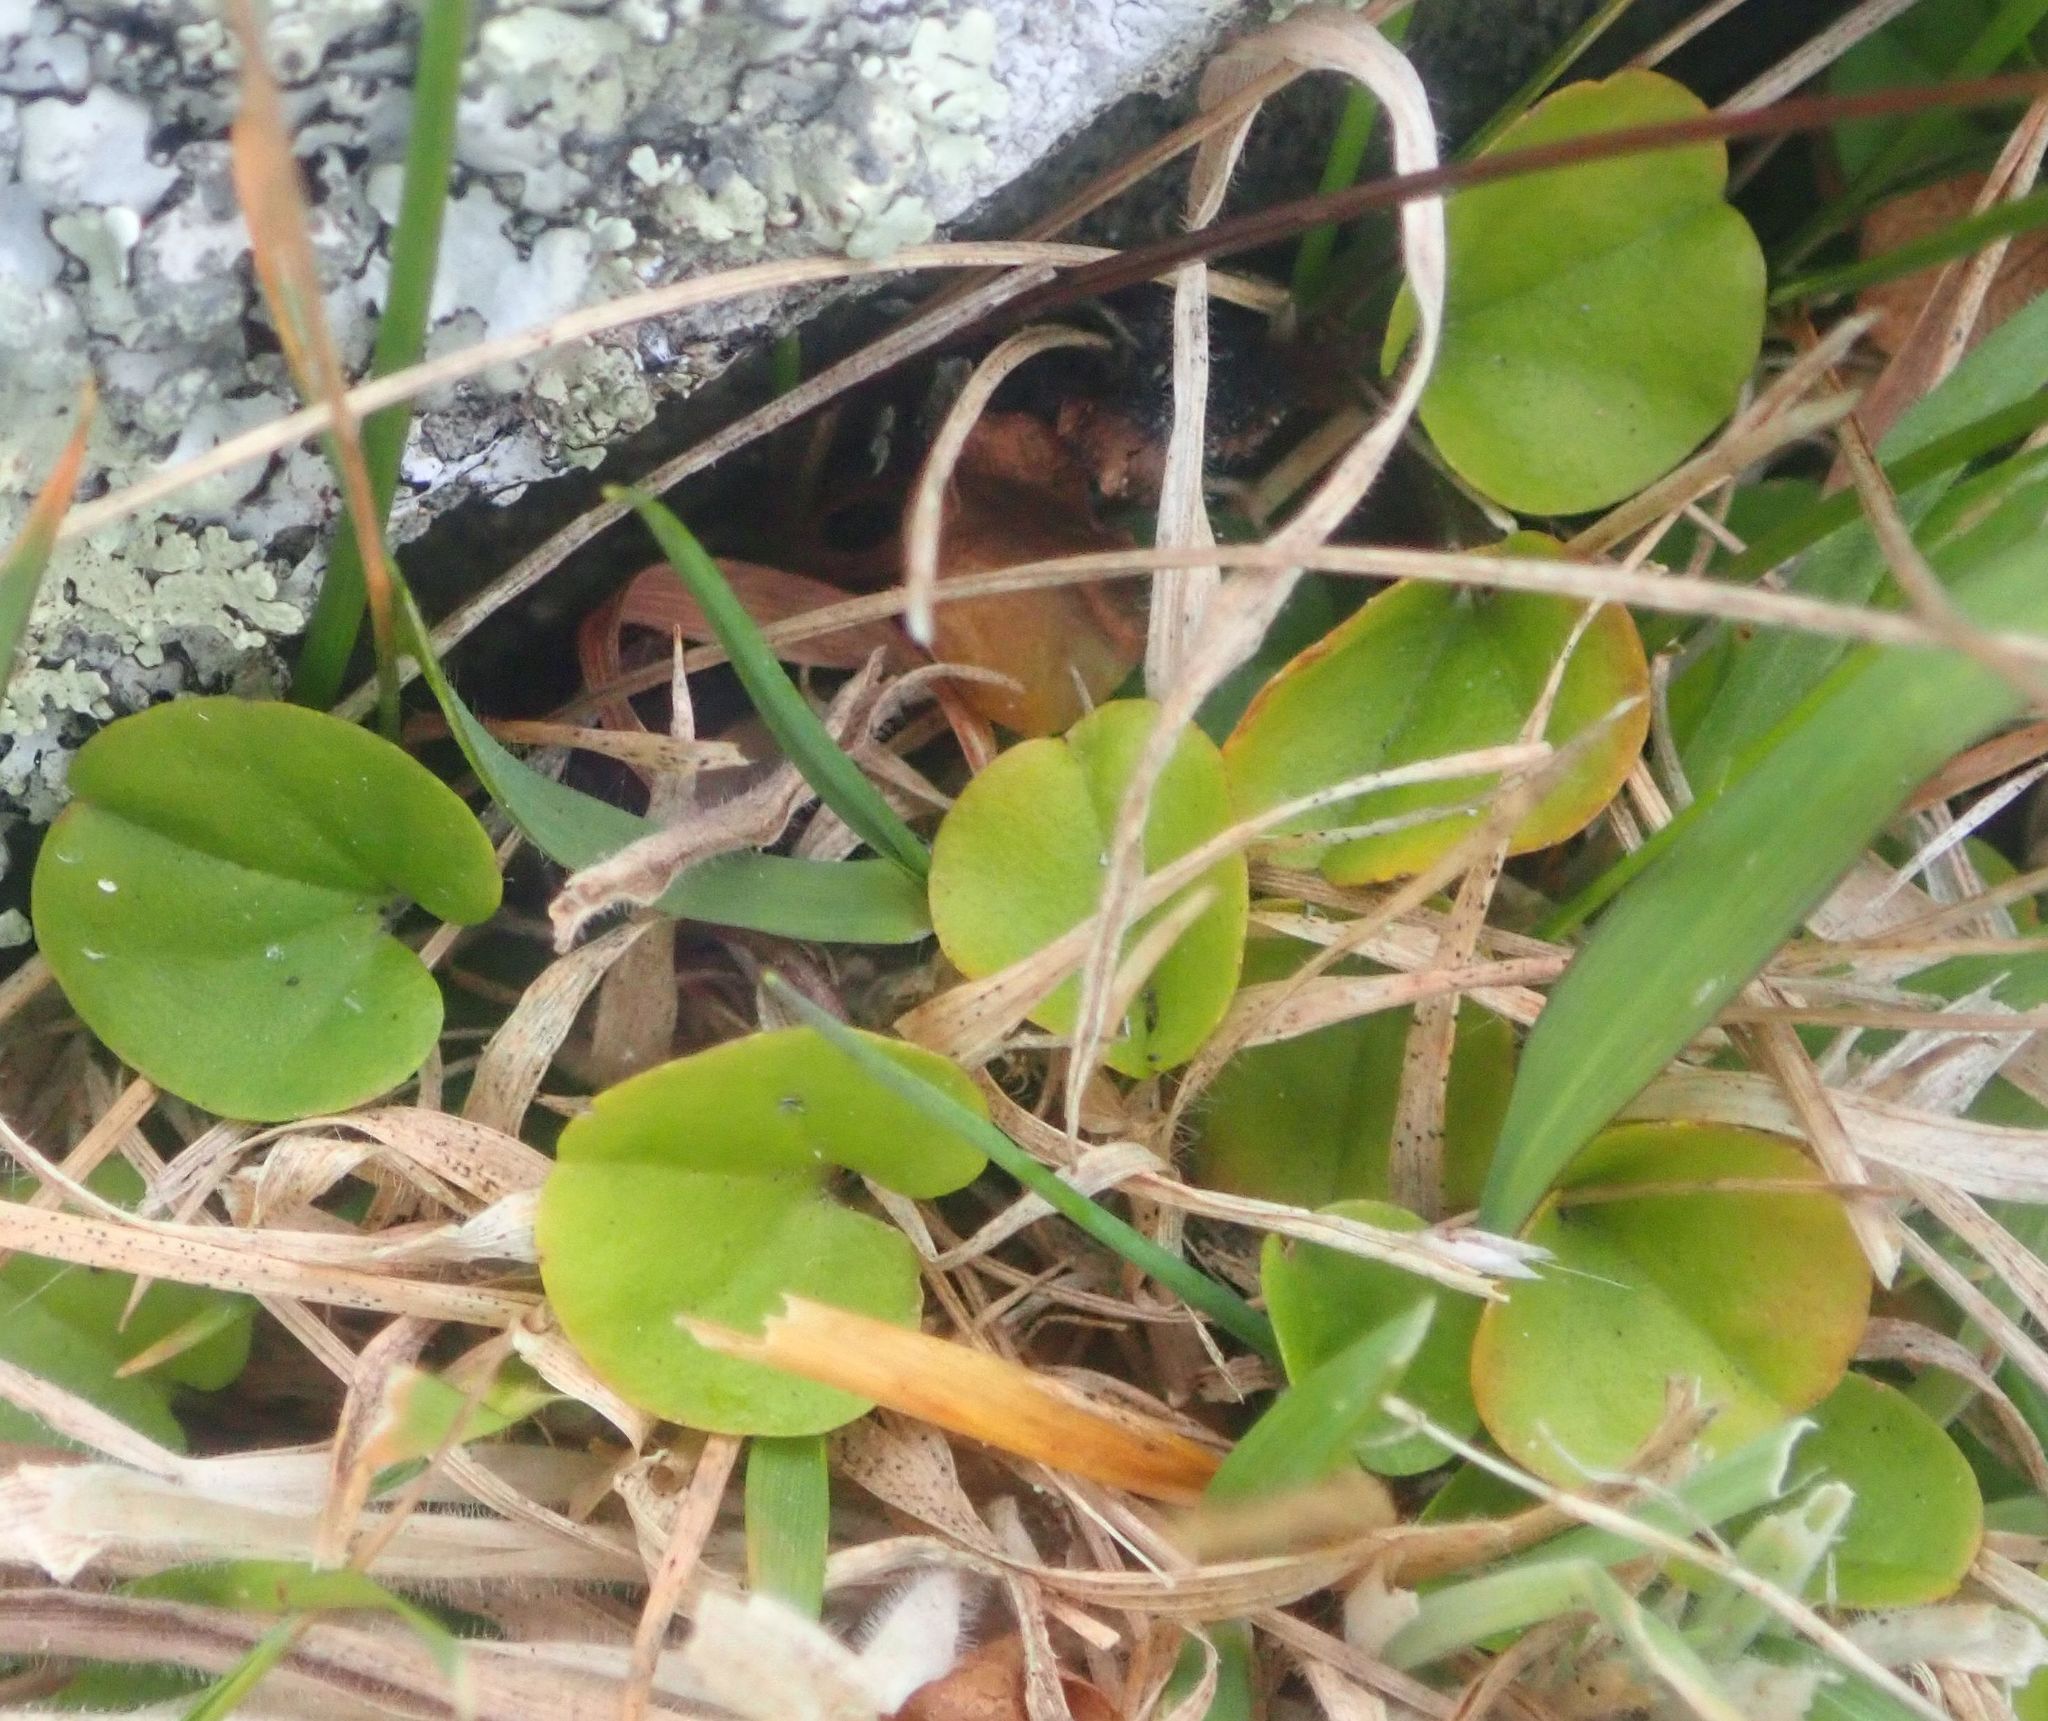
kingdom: Plantae
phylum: Tracheophyta
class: Magnoliopsida
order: Solanales
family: Convolvulaceae
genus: Dichondra
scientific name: Dichondra brevifolia
